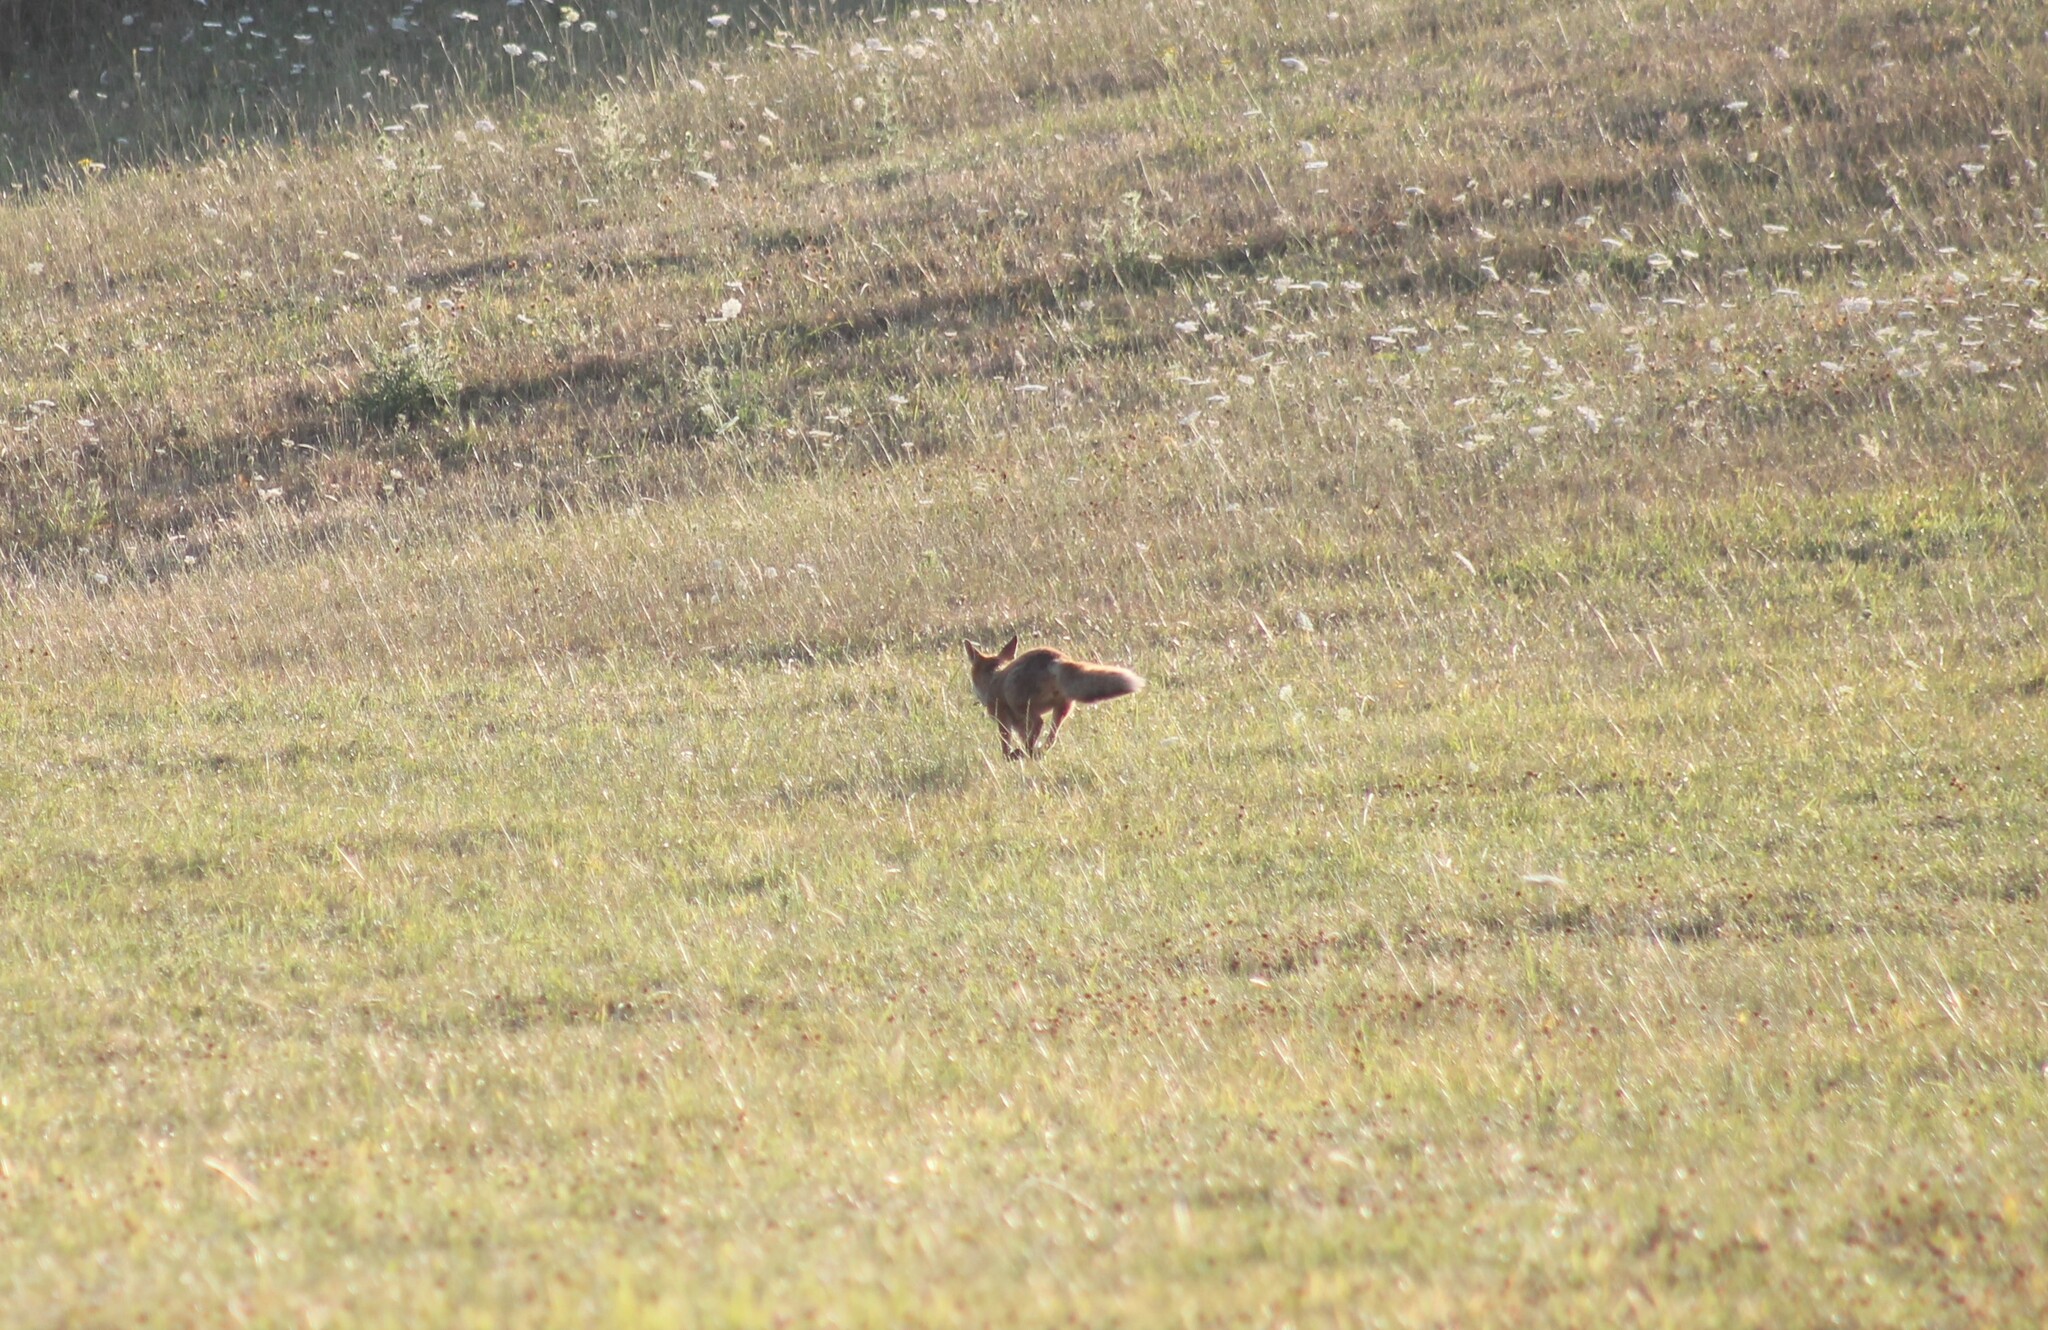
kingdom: Animalia
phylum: Chordata
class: Mammalia
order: Carnivora
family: Canidae
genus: Vulpes
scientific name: Vulpes vulpes
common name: Red fox
